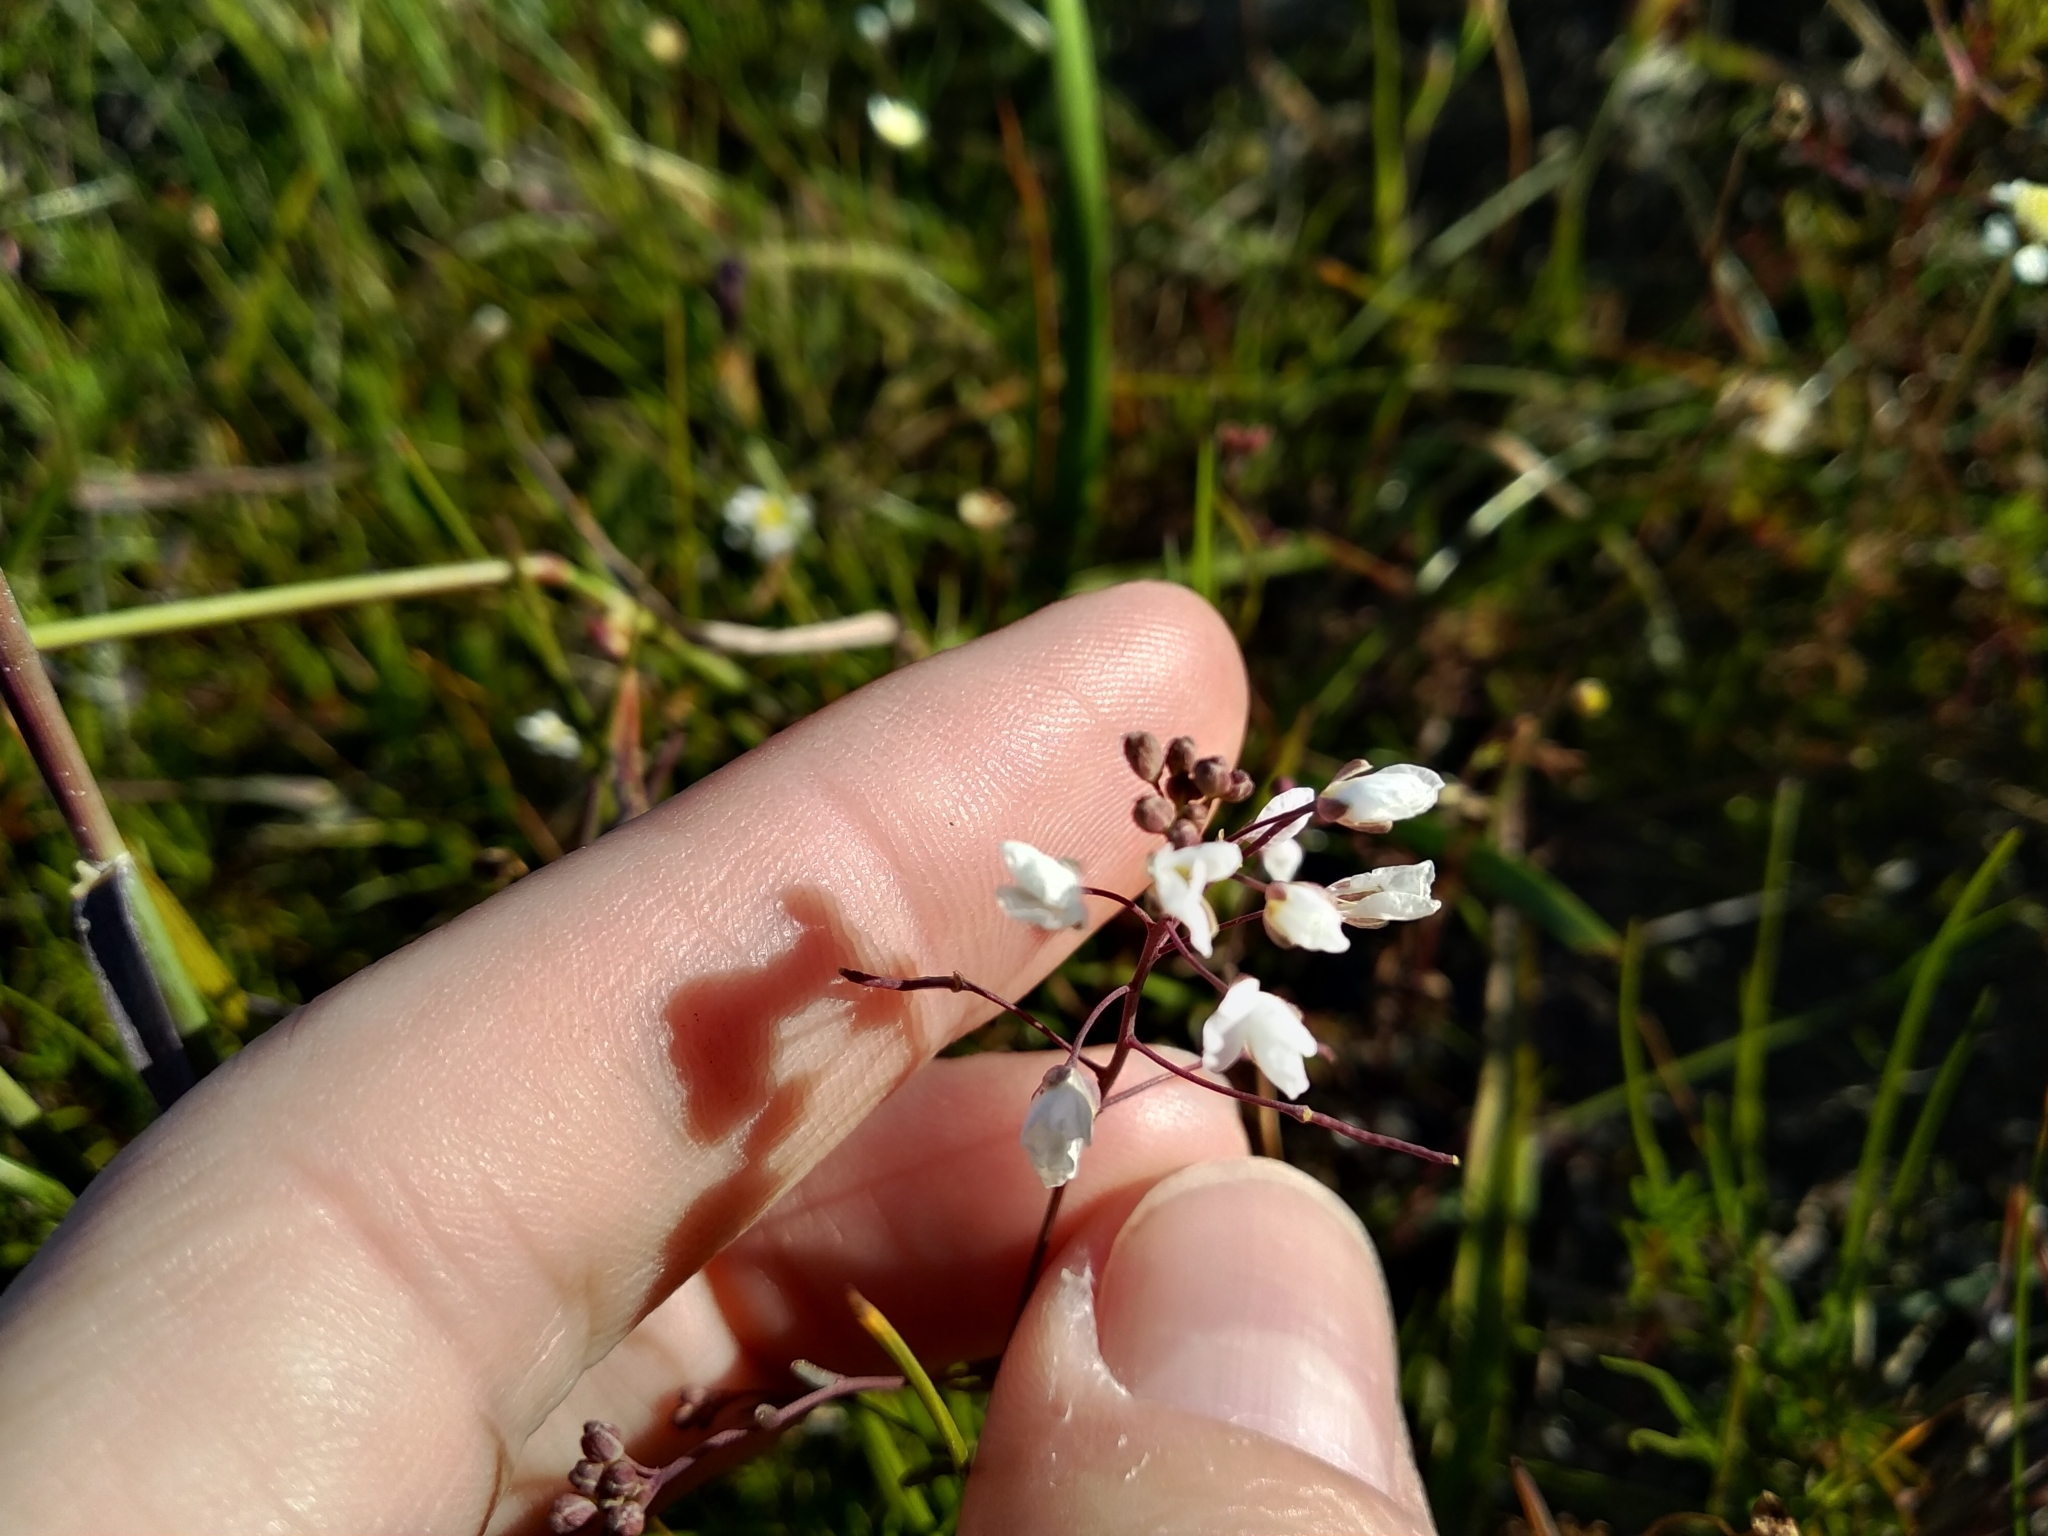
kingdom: Plantae
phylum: Tracheophyta
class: Magnoliopsida
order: Brassicales
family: Brassicaceae
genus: Heliophila
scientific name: Heliophila pusilla
